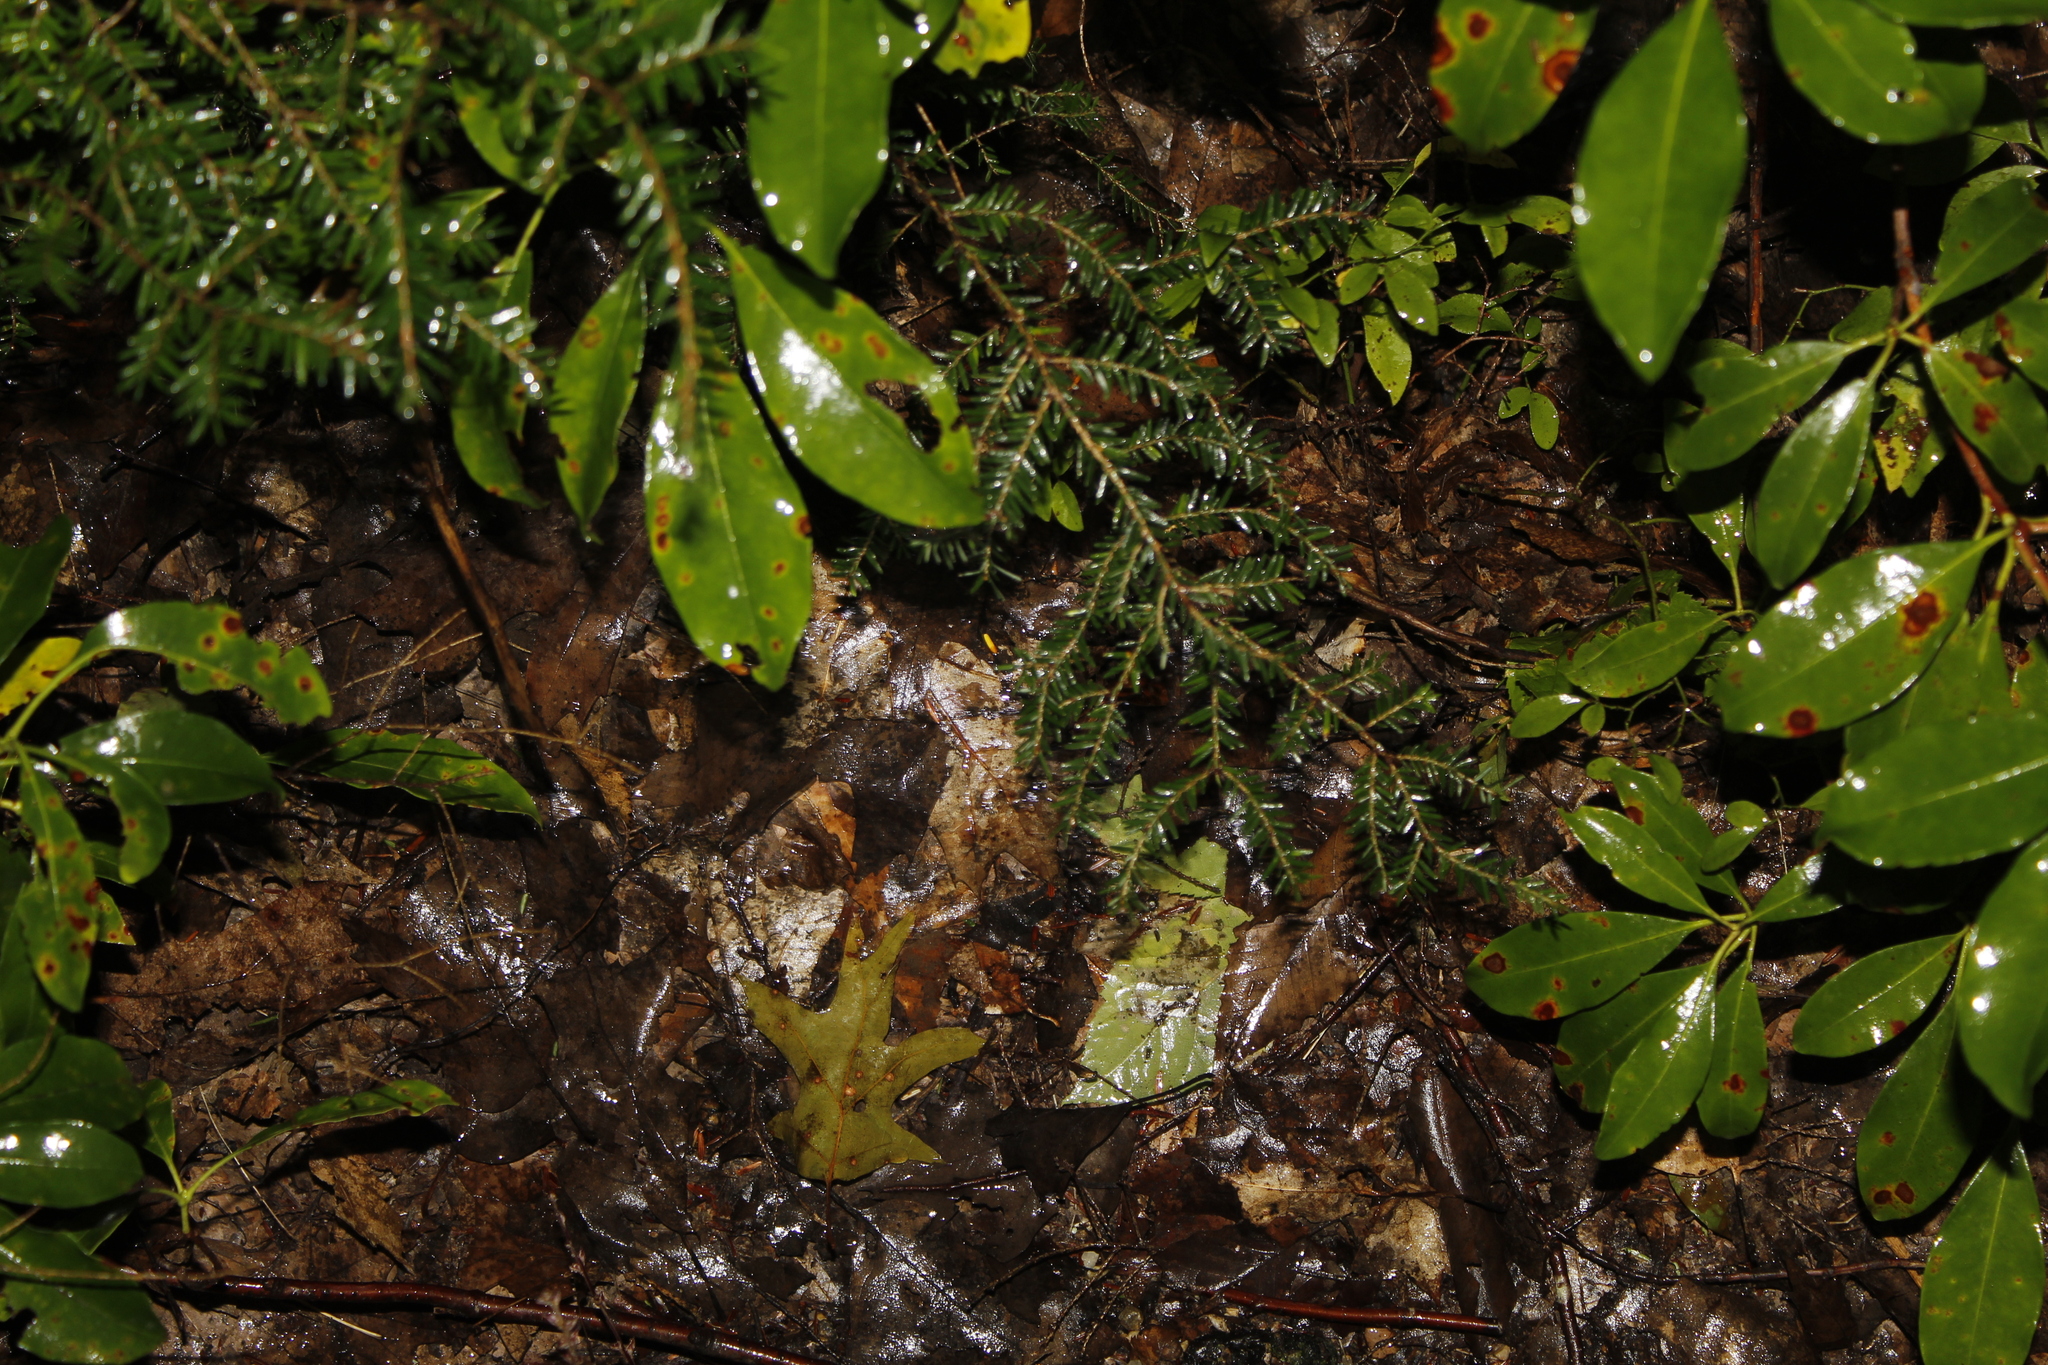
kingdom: Plantae
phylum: Tracheophyta
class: Pinopsida
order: Pinales
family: Pinaceae
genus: Tsuga
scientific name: Tsuga canadensis
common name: Eastern hemlock
